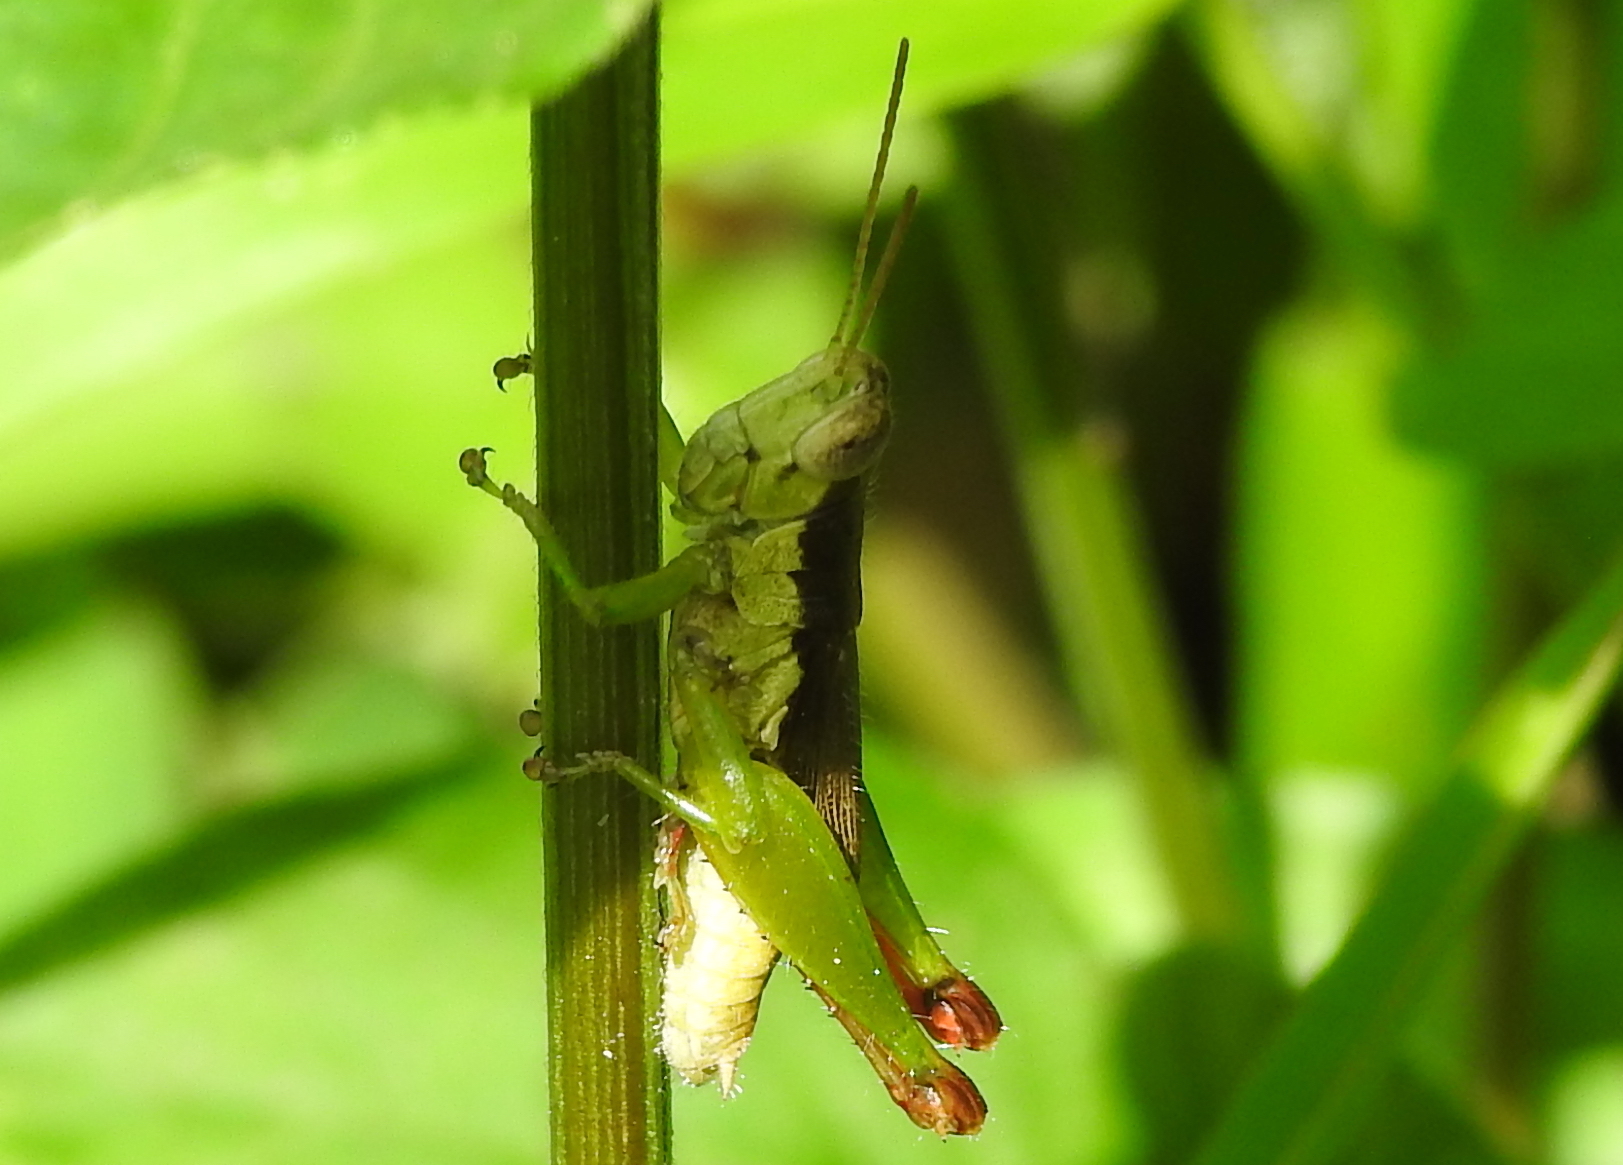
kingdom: Animalia
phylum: Arthropoda
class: Insecta
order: Orthoptera
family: Acrididae
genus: Pseudoxya
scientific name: Pseudoxya diminuta
